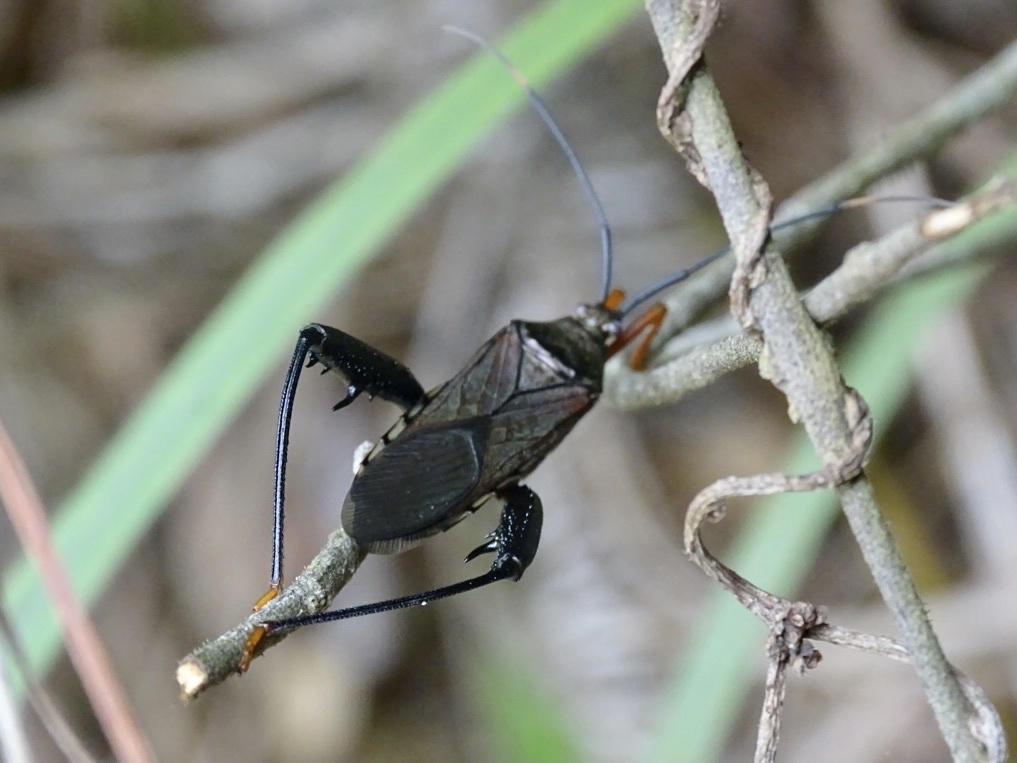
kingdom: Animalia
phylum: Arthropoda
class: Insecta
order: Hemiptera
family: Coreidae
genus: Notobitus
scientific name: Notobitus sexguttatus
